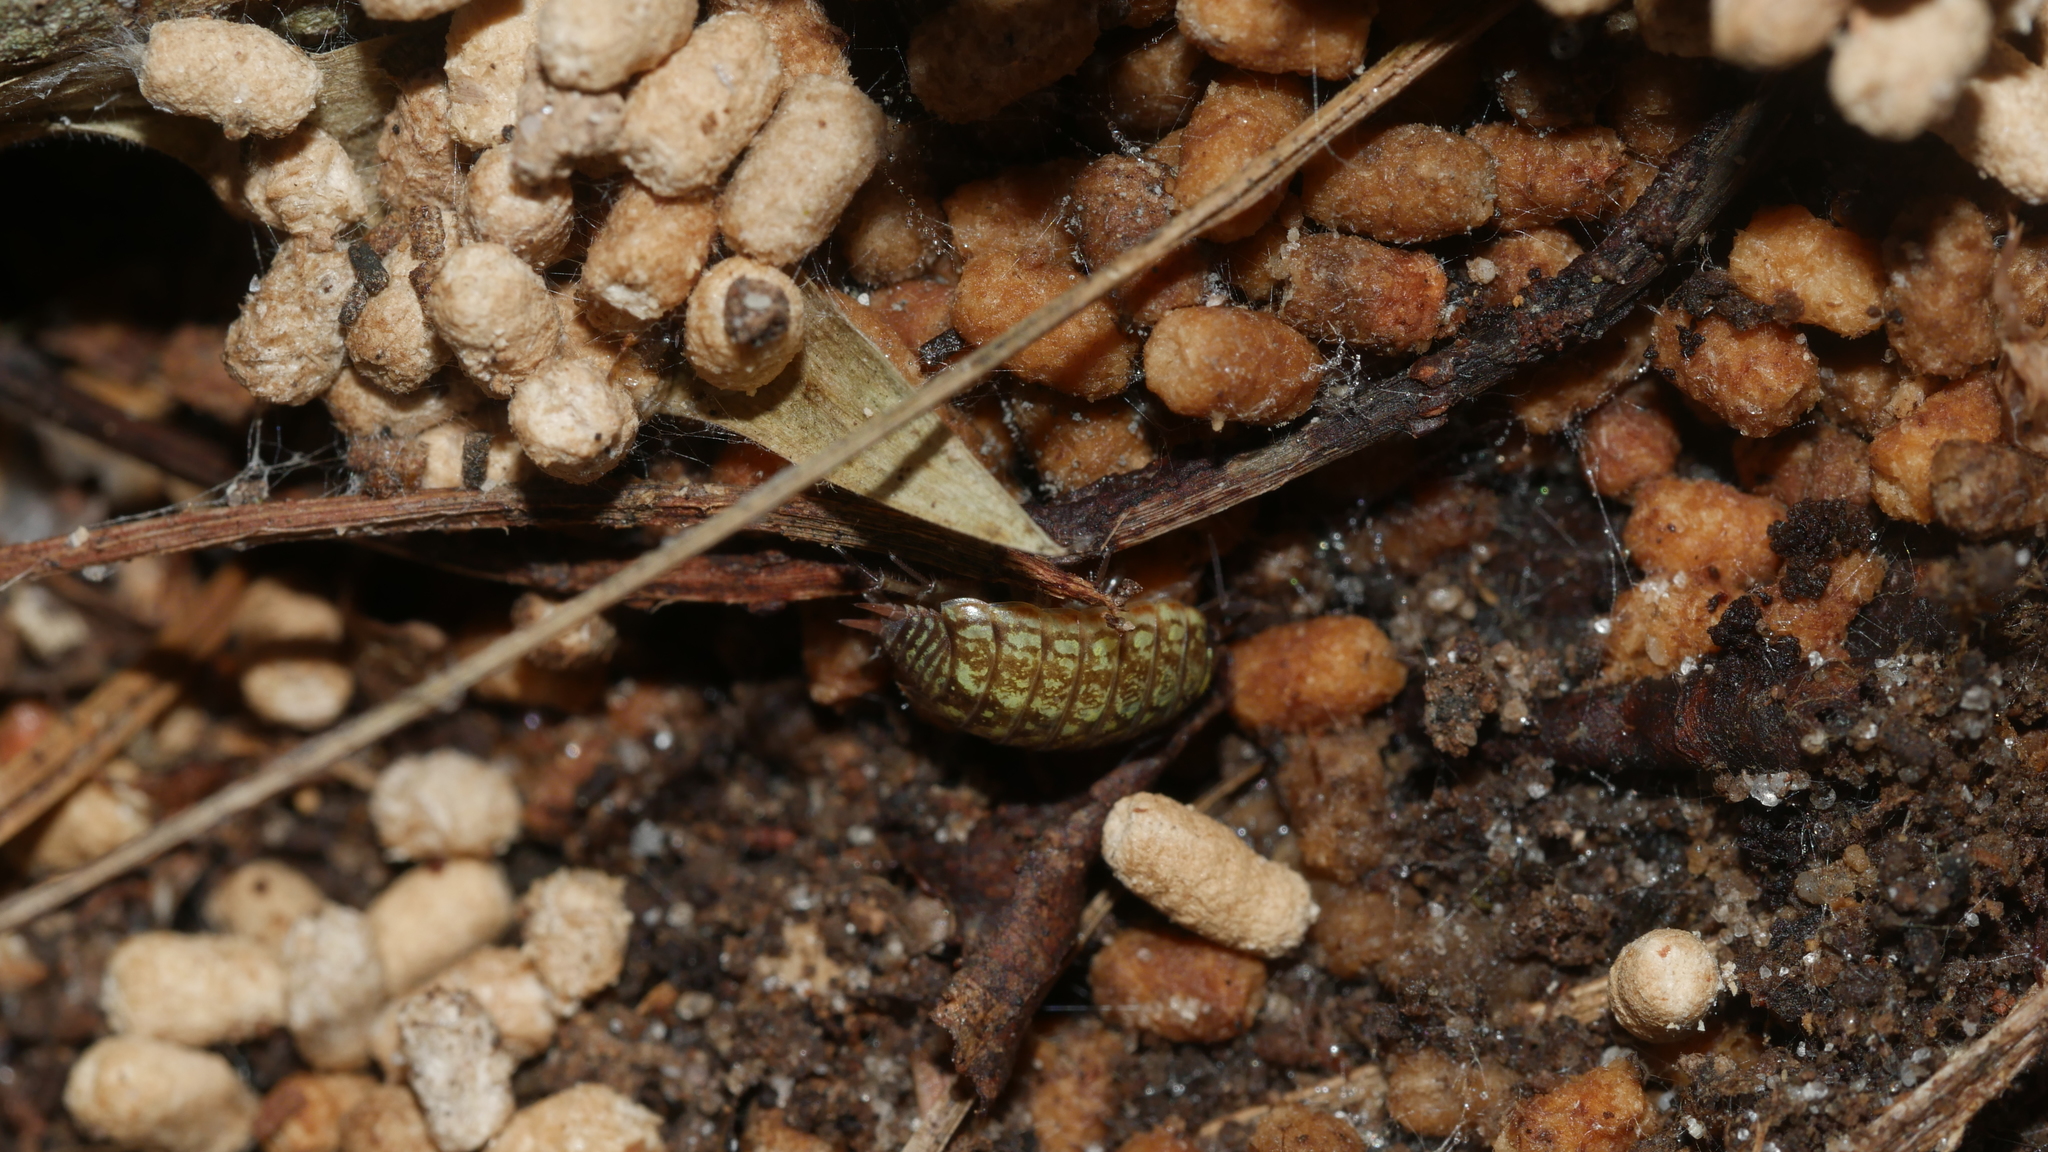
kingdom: Animalia
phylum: Arthropoda
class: Malacostraca
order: Isopoda
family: Philosciidae
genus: Philoscia
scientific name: Philoscia muscorum
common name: Common striped woodlouse
